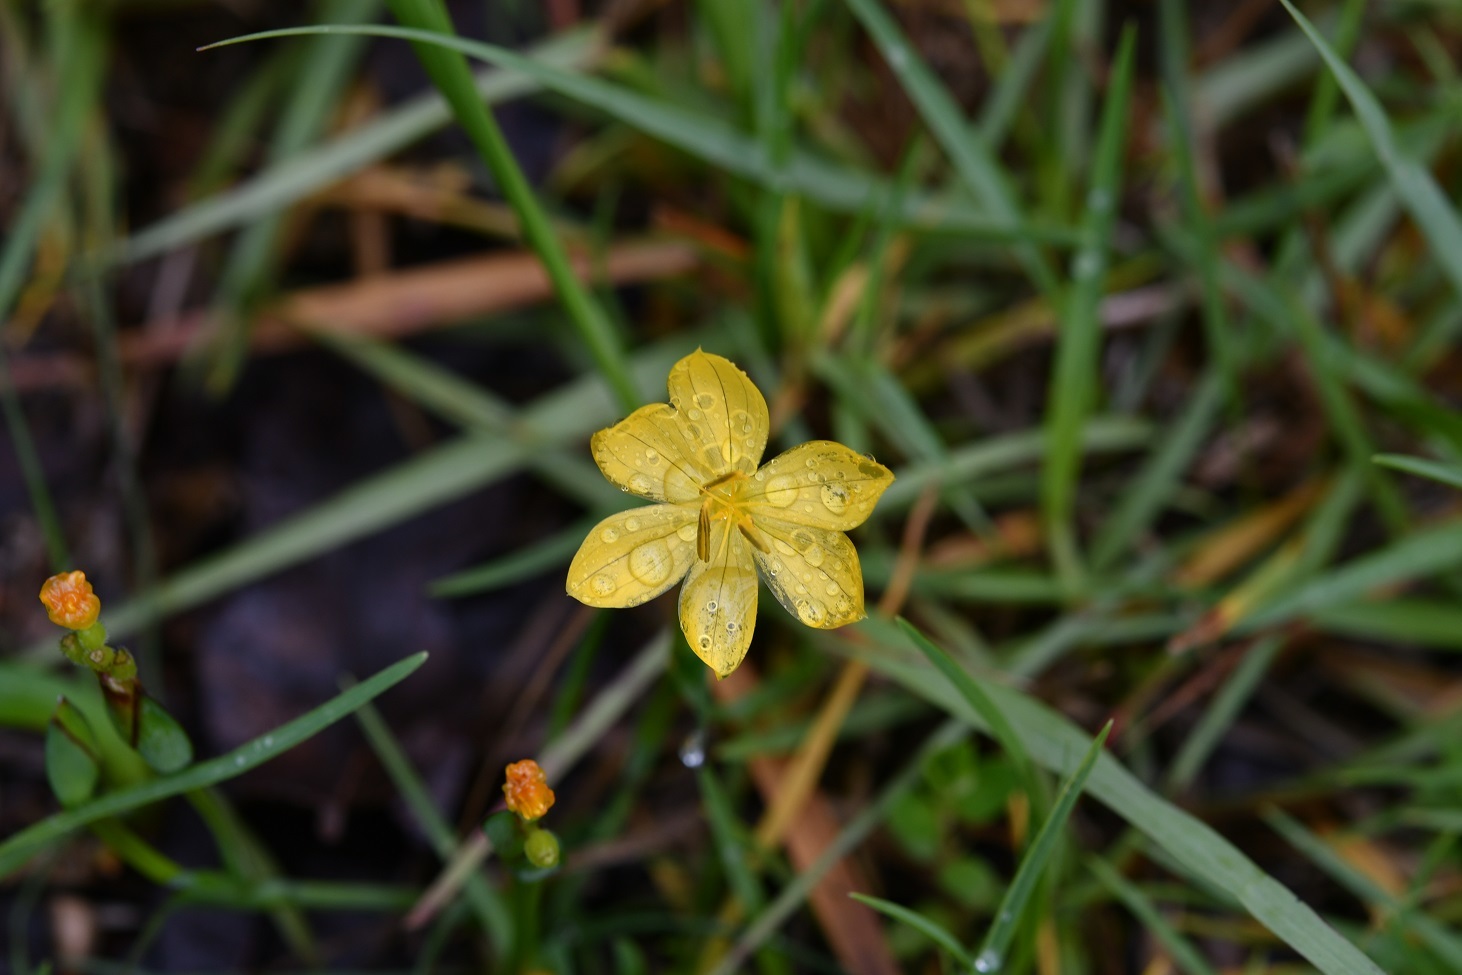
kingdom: Plantae
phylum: Tracheophyta
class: Liliopsida
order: Asparagales
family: Iridaceae
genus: Sisyrinchium
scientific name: Sisyrinchium angustissimum
